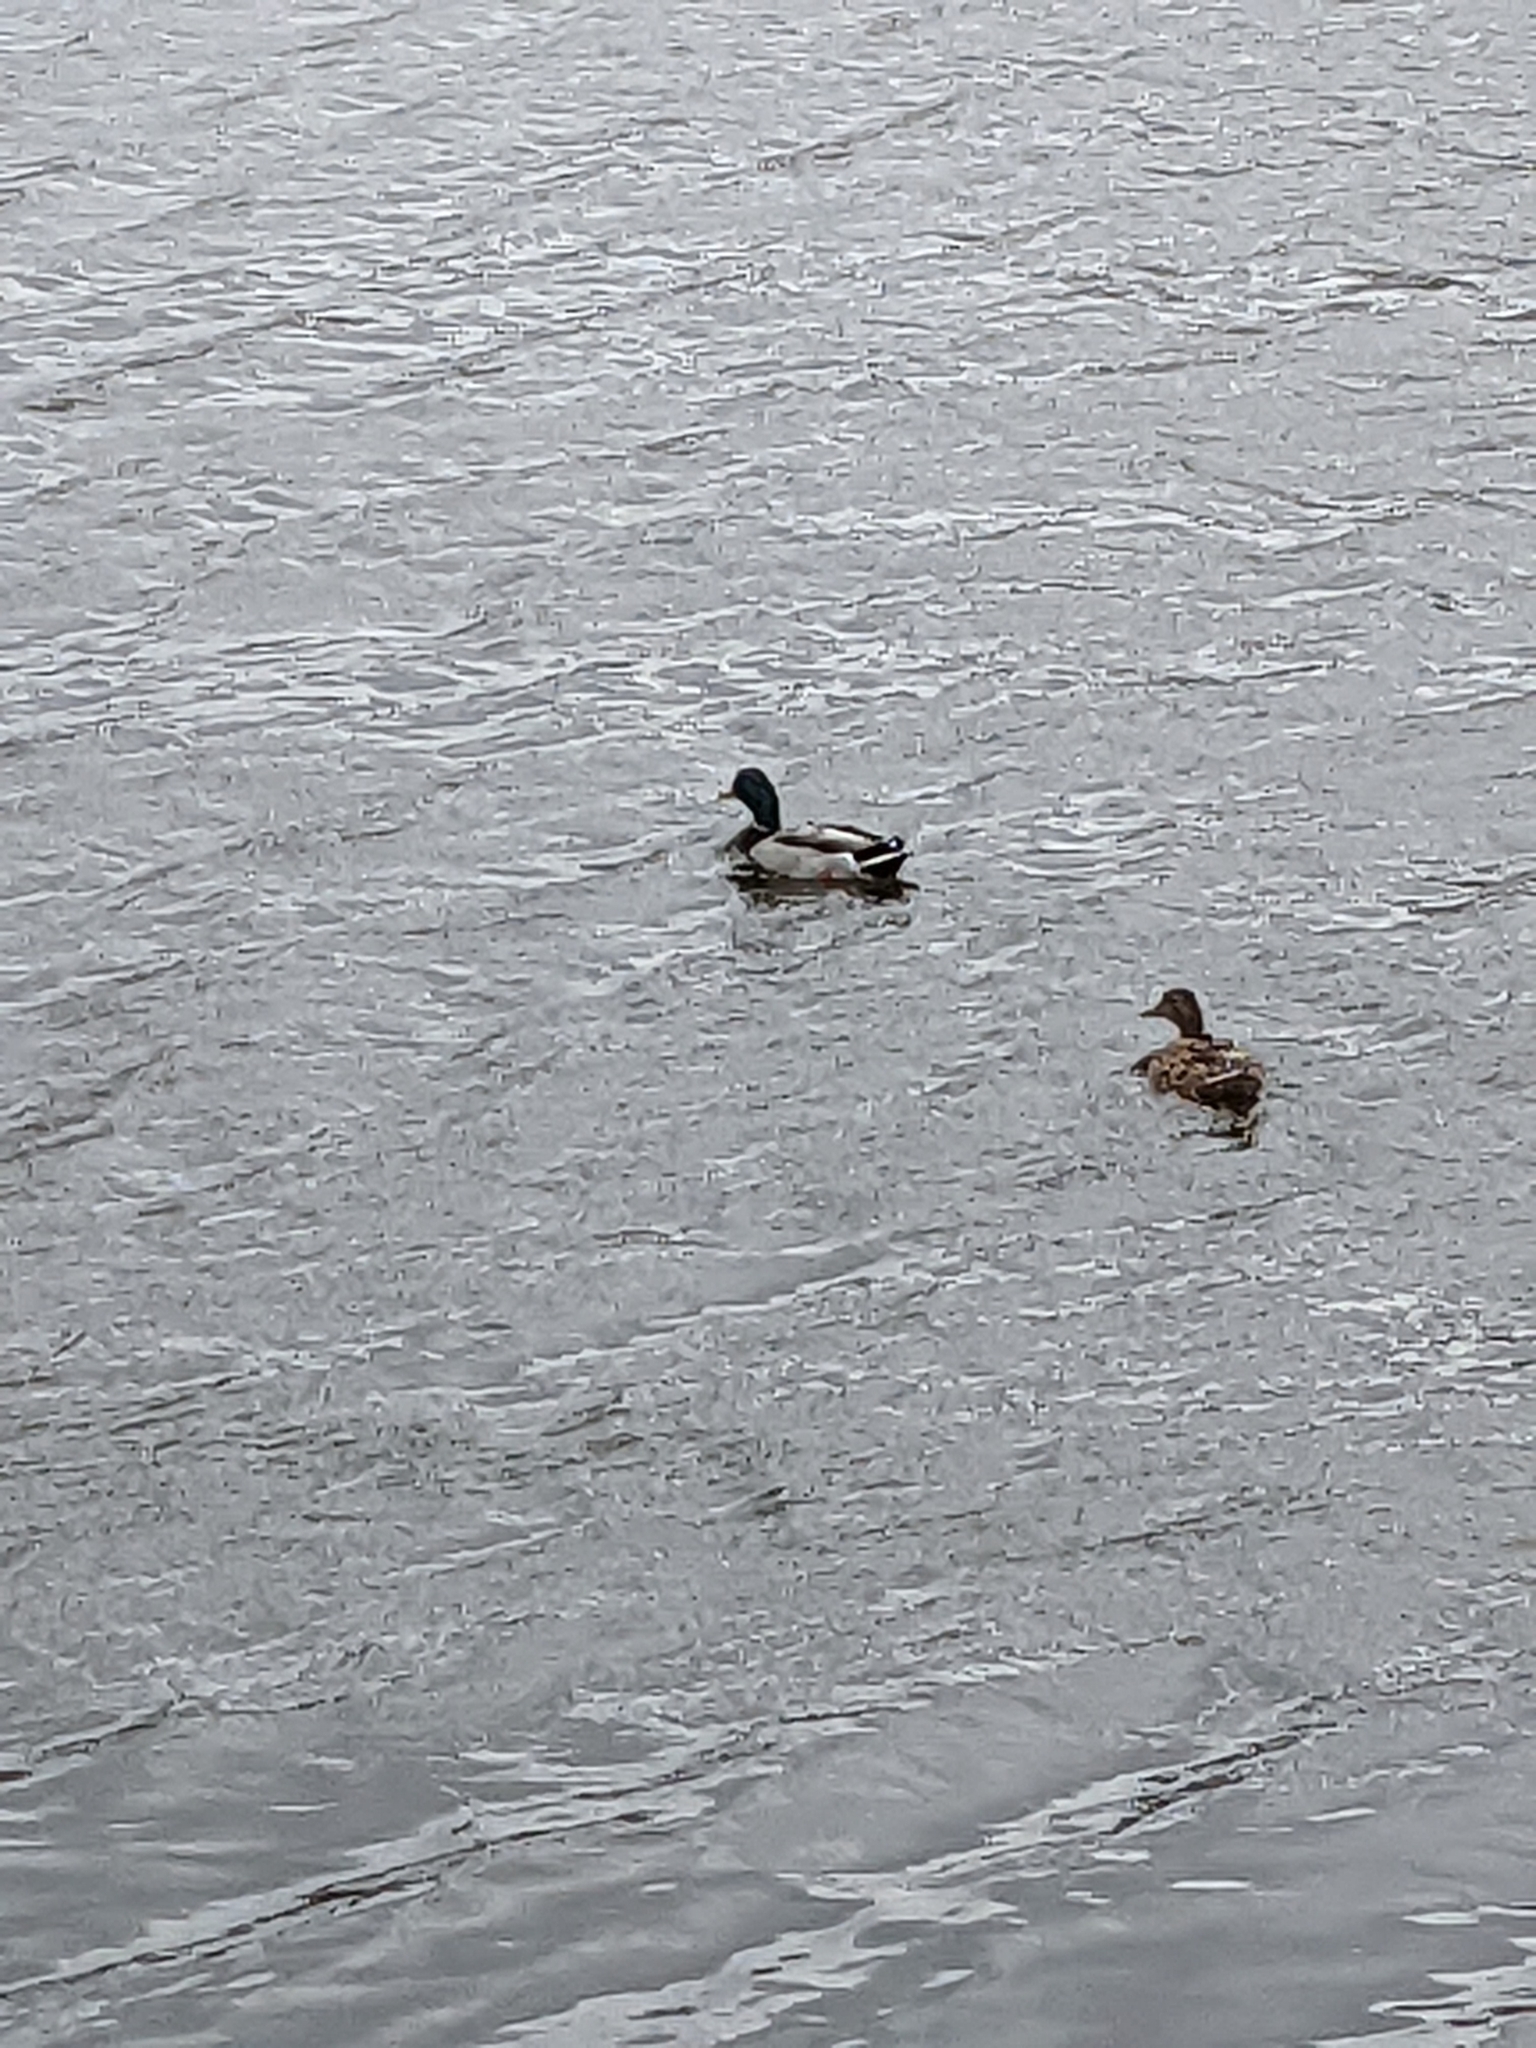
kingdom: Animalia
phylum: Chordata
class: Aves
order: Anseriformes
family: Anatidae
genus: Anas
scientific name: Anas platyrhynchos
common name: Mallard
